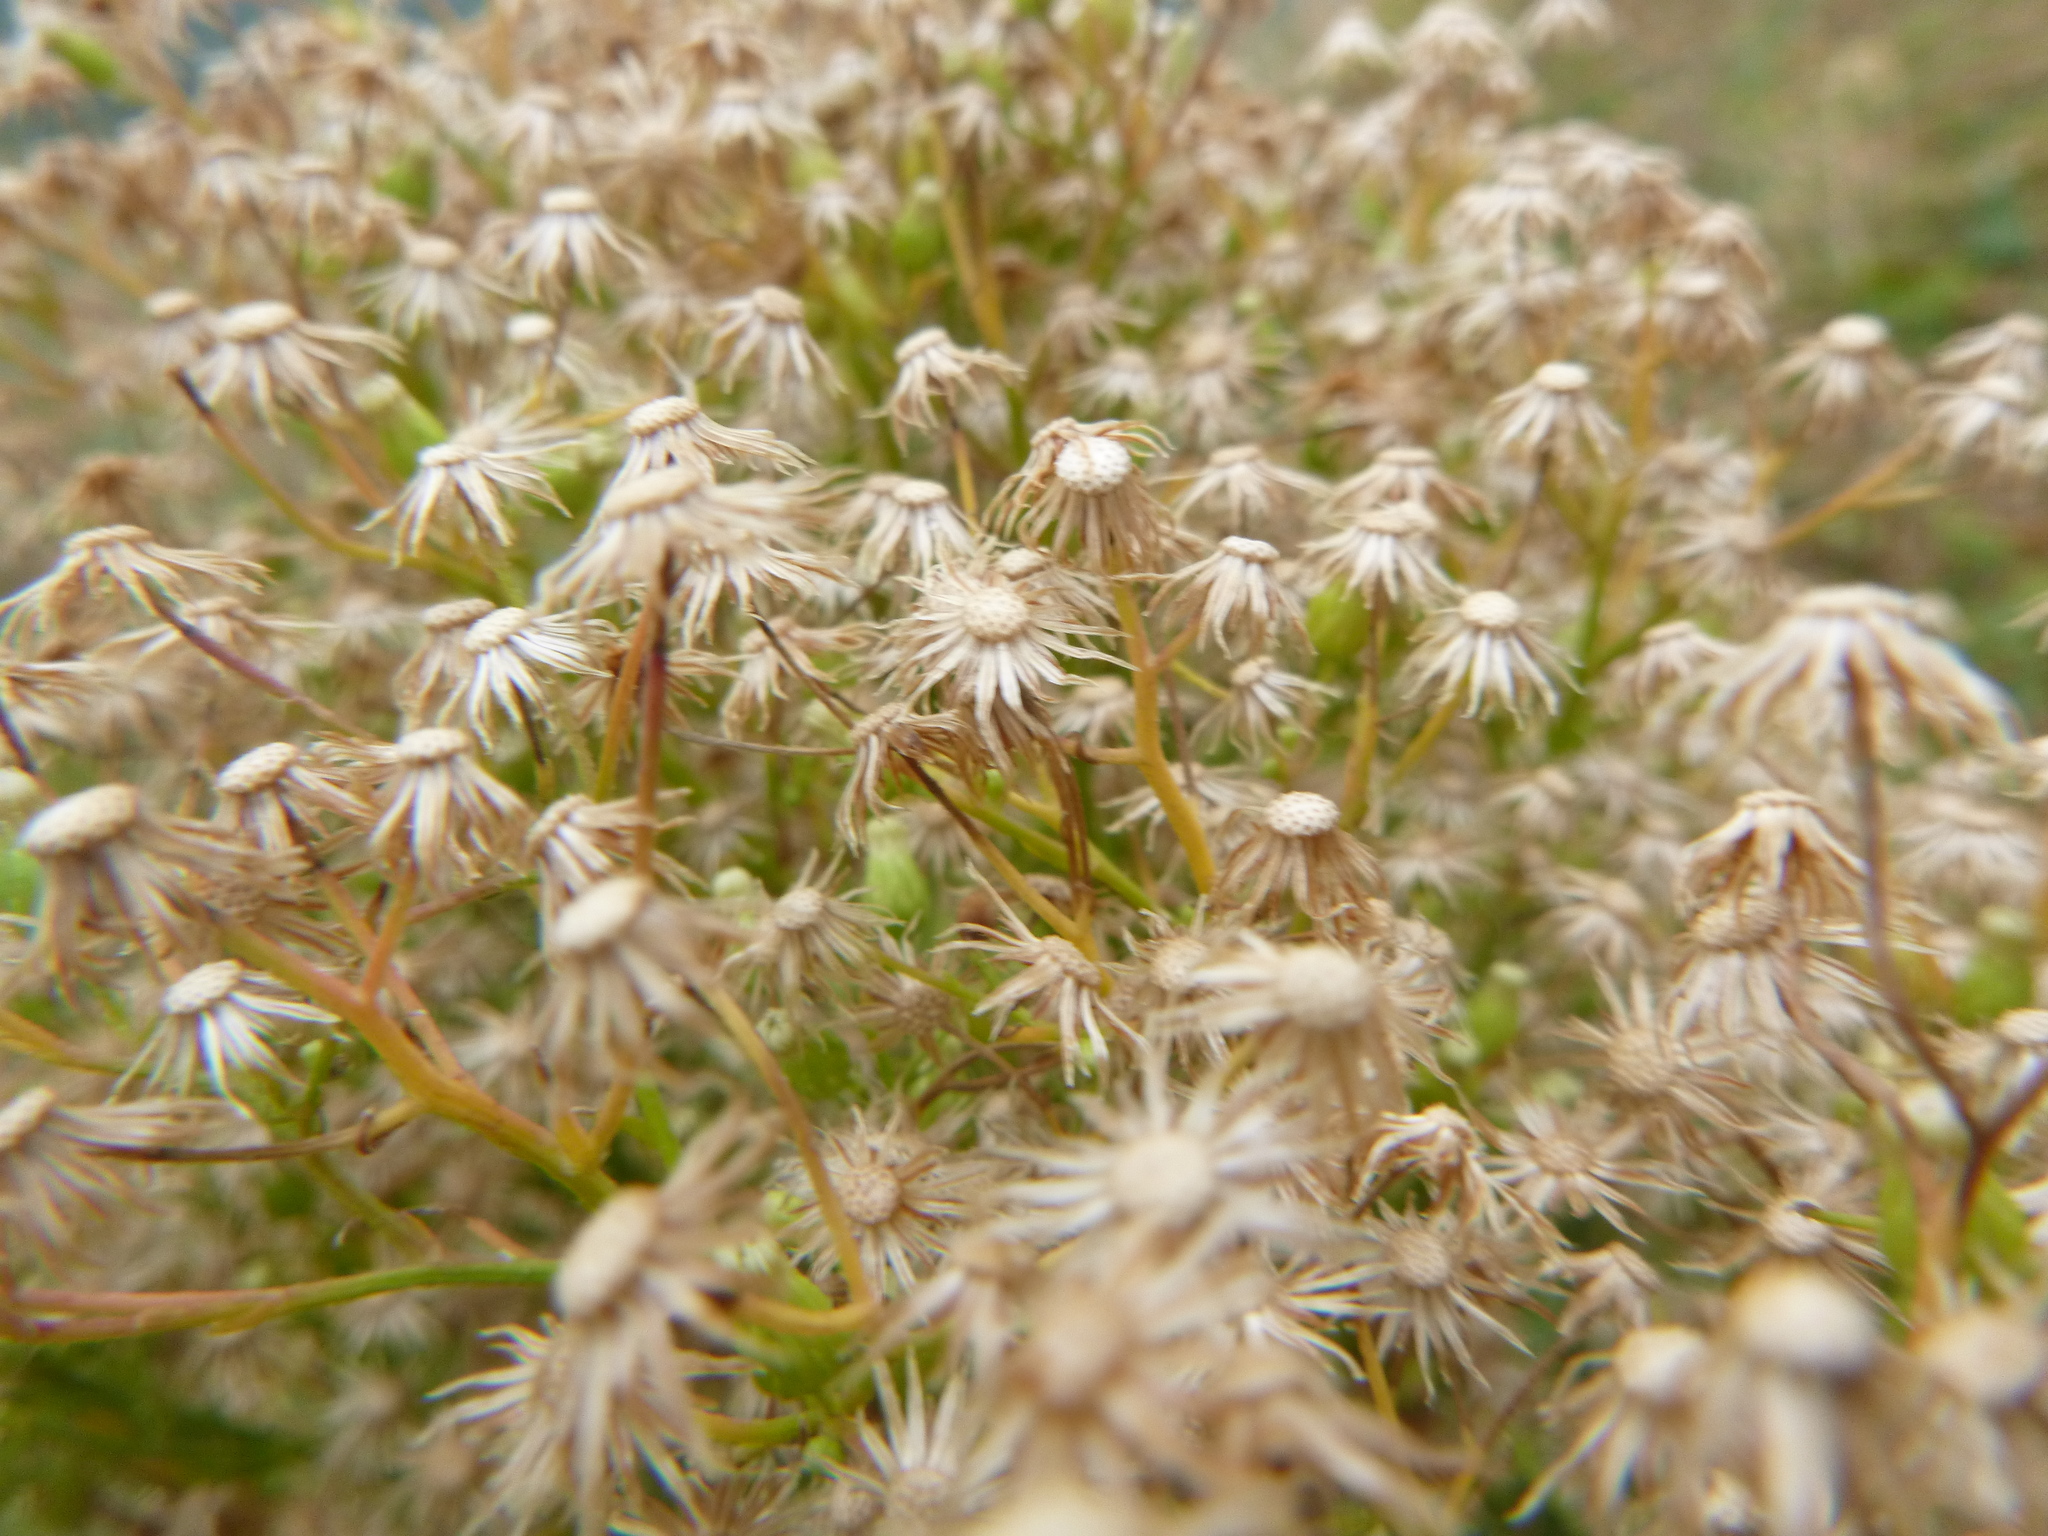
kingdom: Plantae
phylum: Tracheophyta
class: Magnoliopsida
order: Asterales
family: Asteraceae
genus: Erigeron
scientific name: Erigeron canadensis
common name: Canadian fleabane
